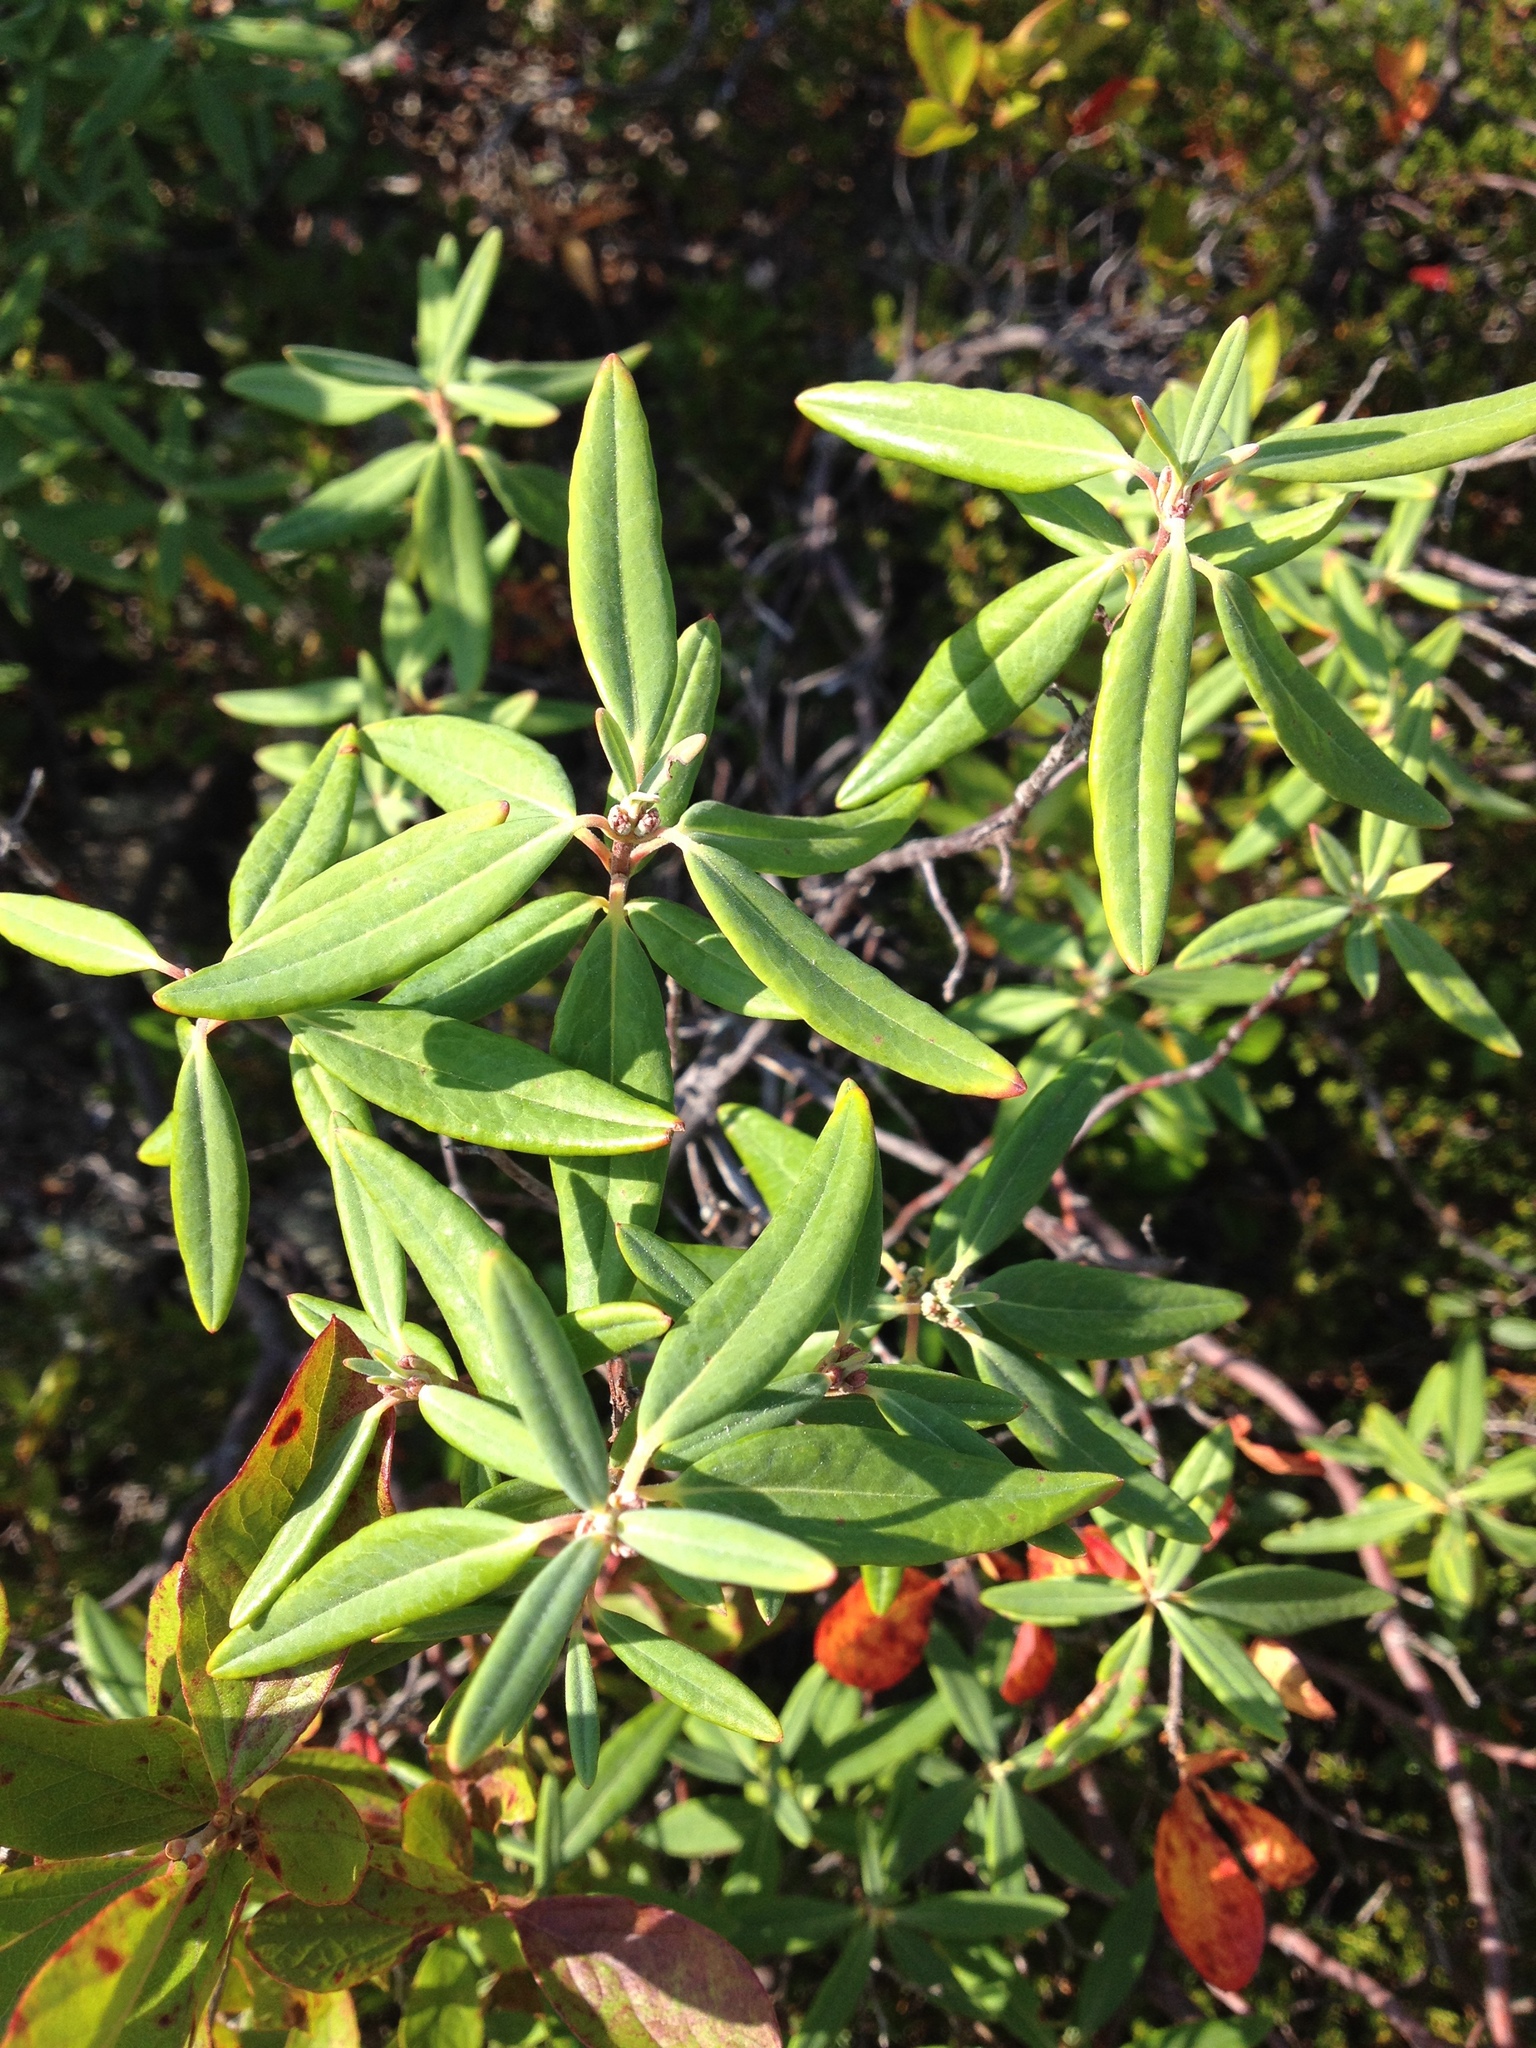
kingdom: Plantae
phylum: Tracheophyta
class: Magnoliopsida
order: Ericales
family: Ericaceae
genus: Kalmia
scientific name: Kalmia angustifolia
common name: Sheep-laurel
